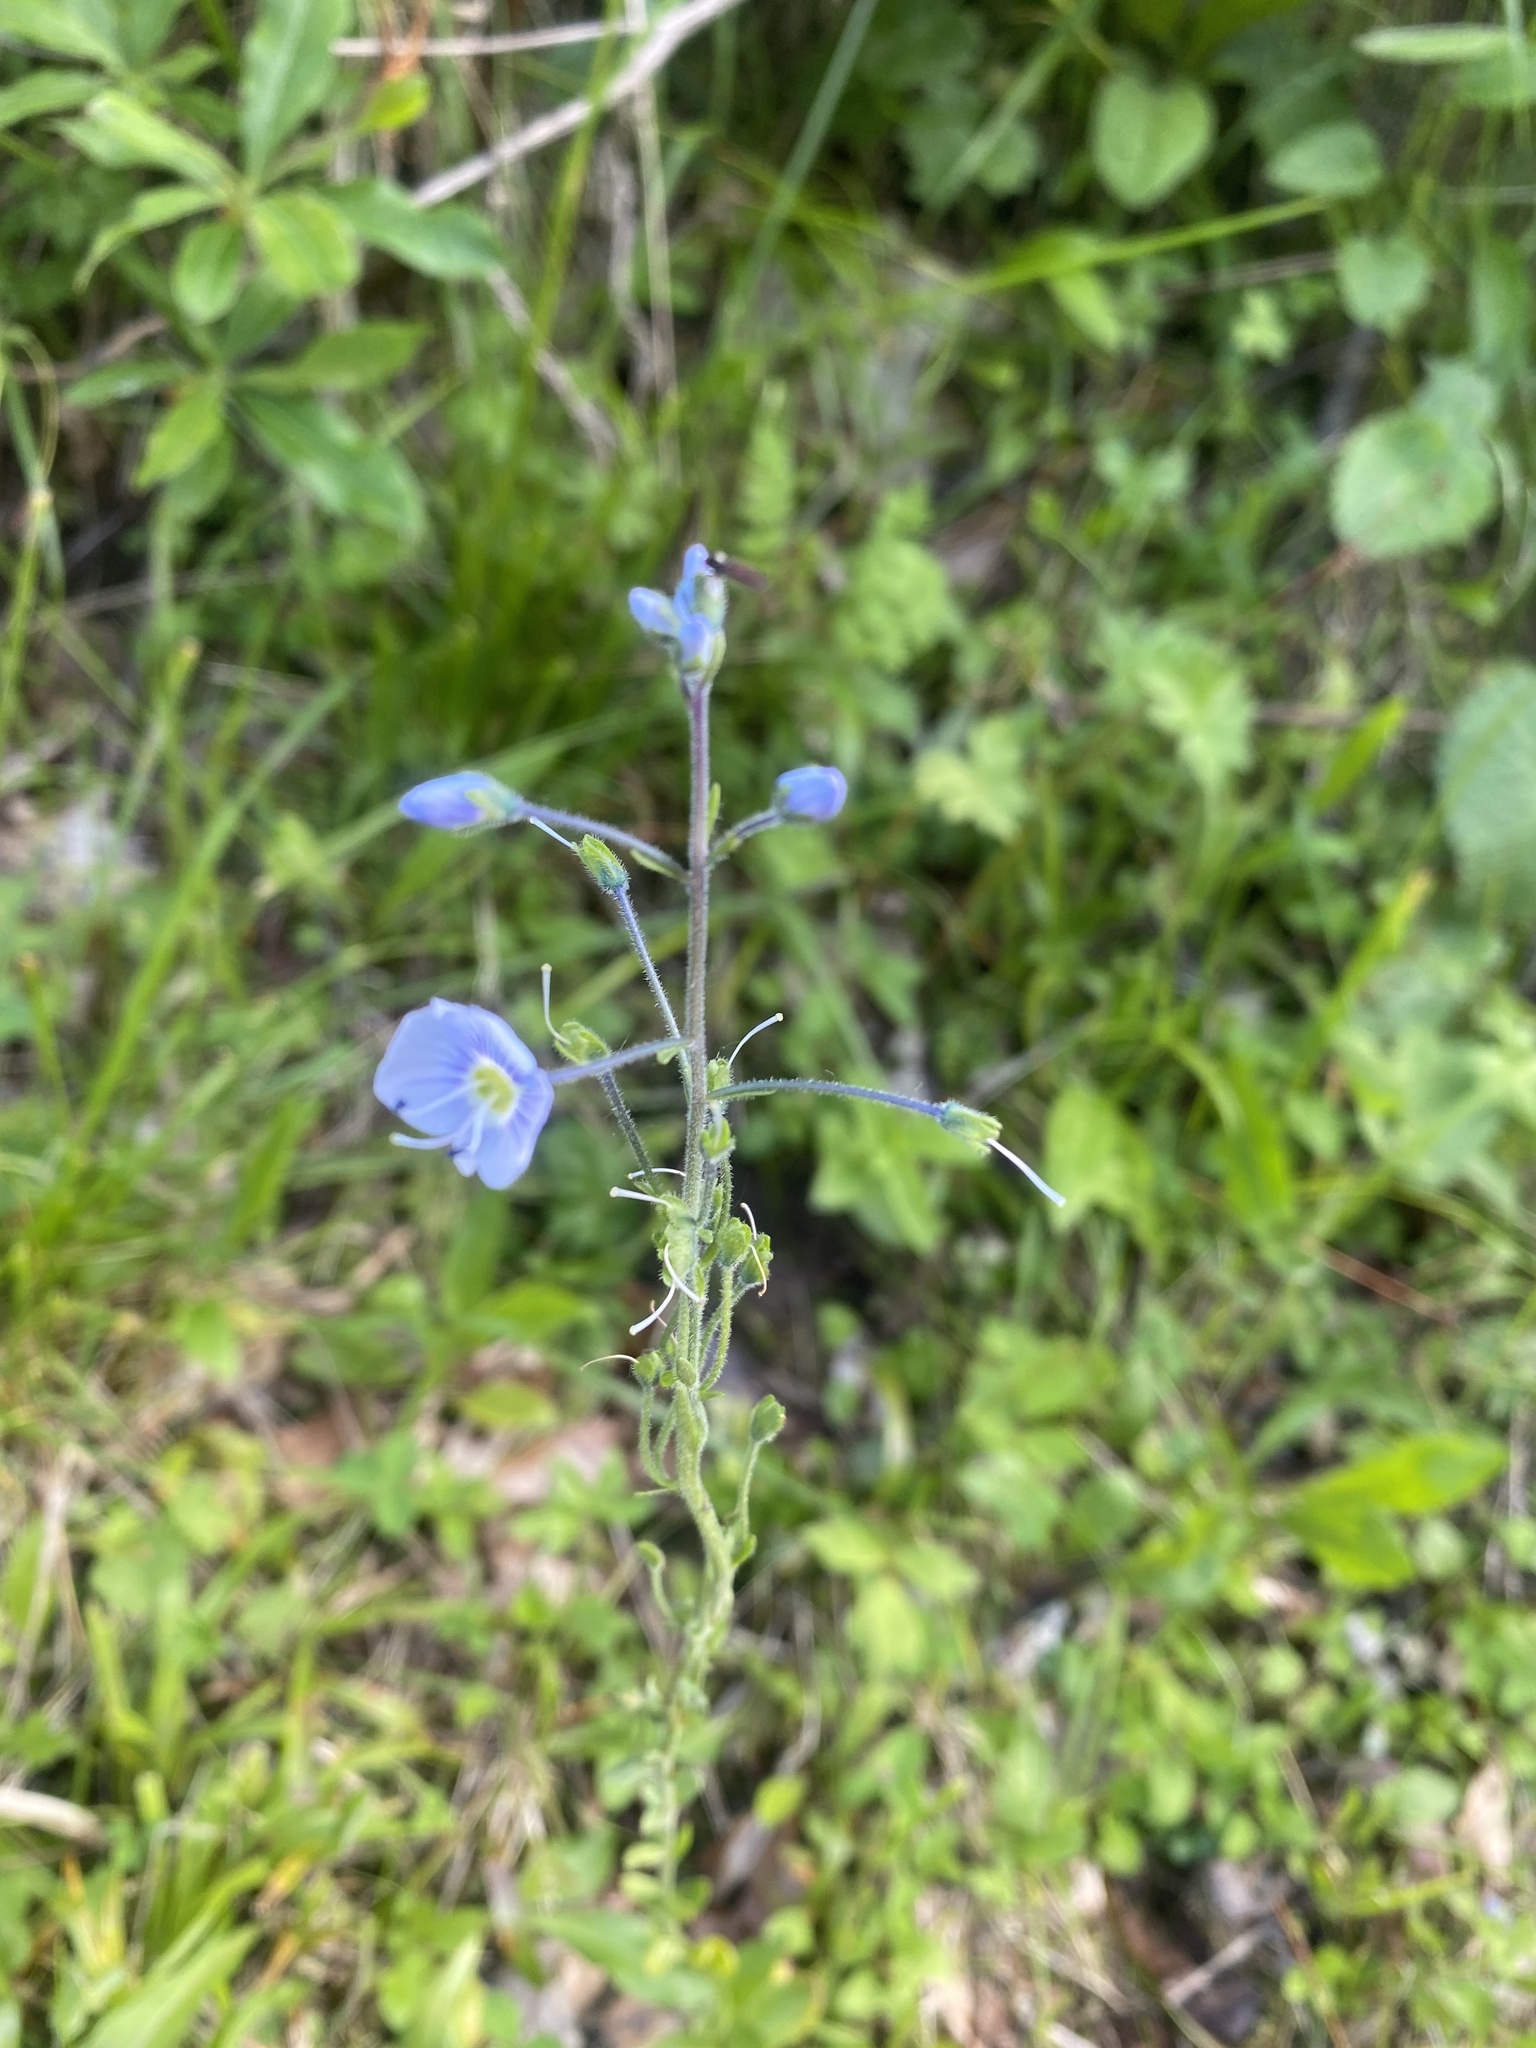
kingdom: Plantae
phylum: Tracheophyta
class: Magnoliopsida
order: Lamiales
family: Plantaginaceae
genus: Veronica
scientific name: Veronica gentianoides
